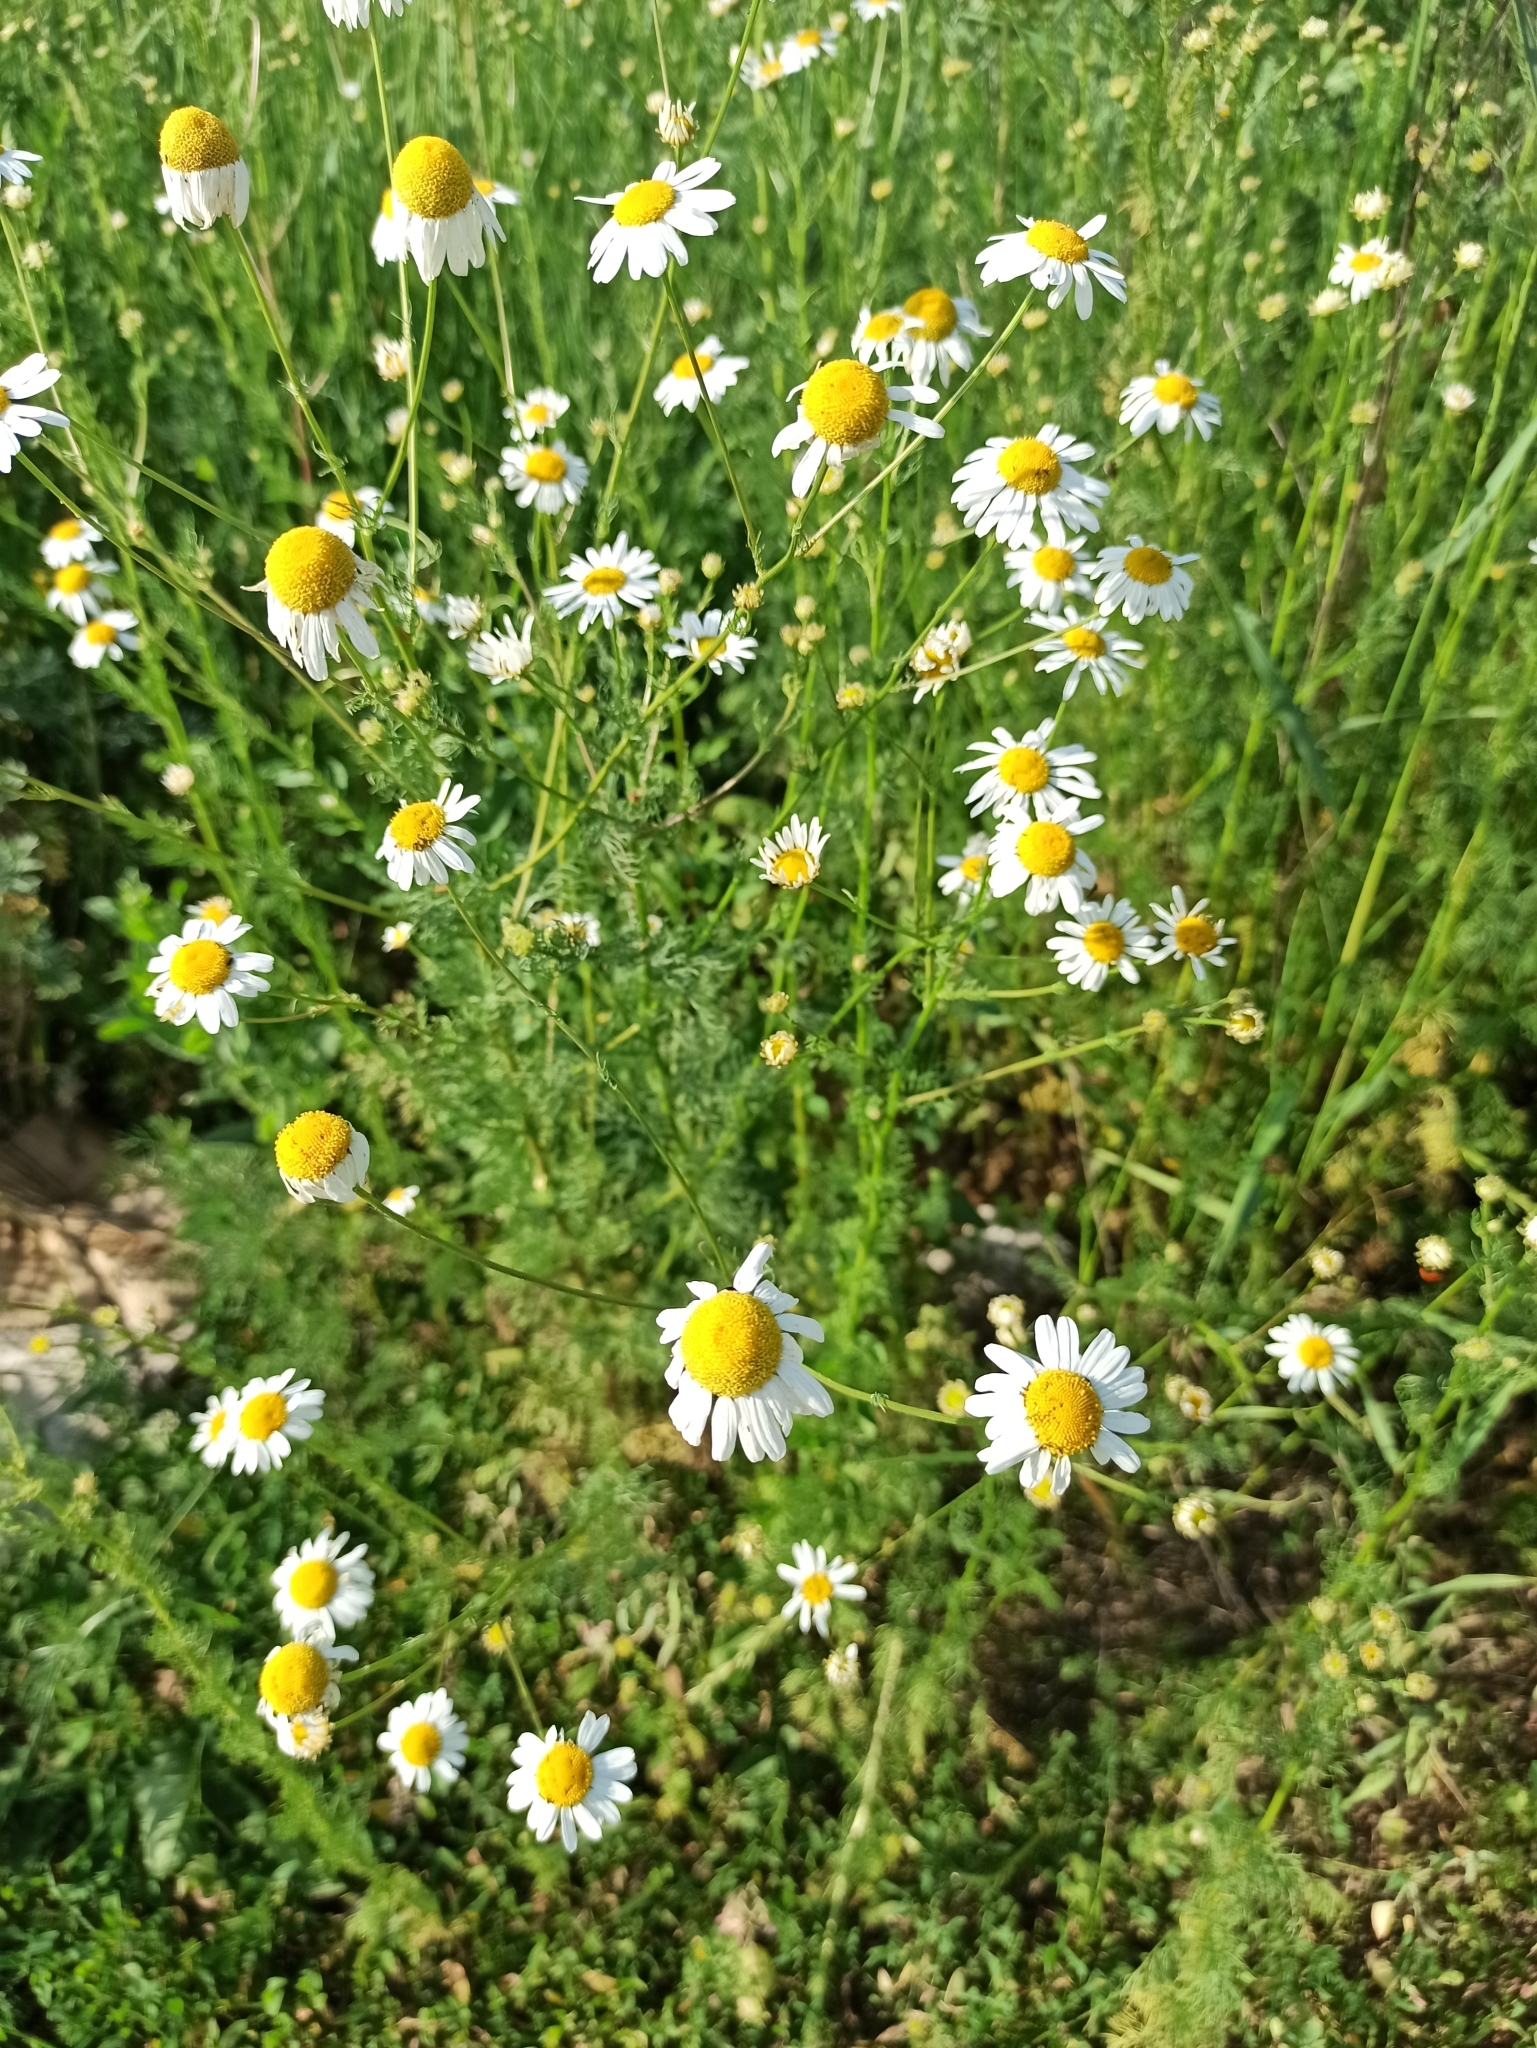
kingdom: Plantae
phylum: Tracheophyta
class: Magnoliopsida
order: Asterales
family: Asteraceae
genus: Tripleurospermum
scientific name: Tripleurospermum inodorum
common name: Scentless mayweed
